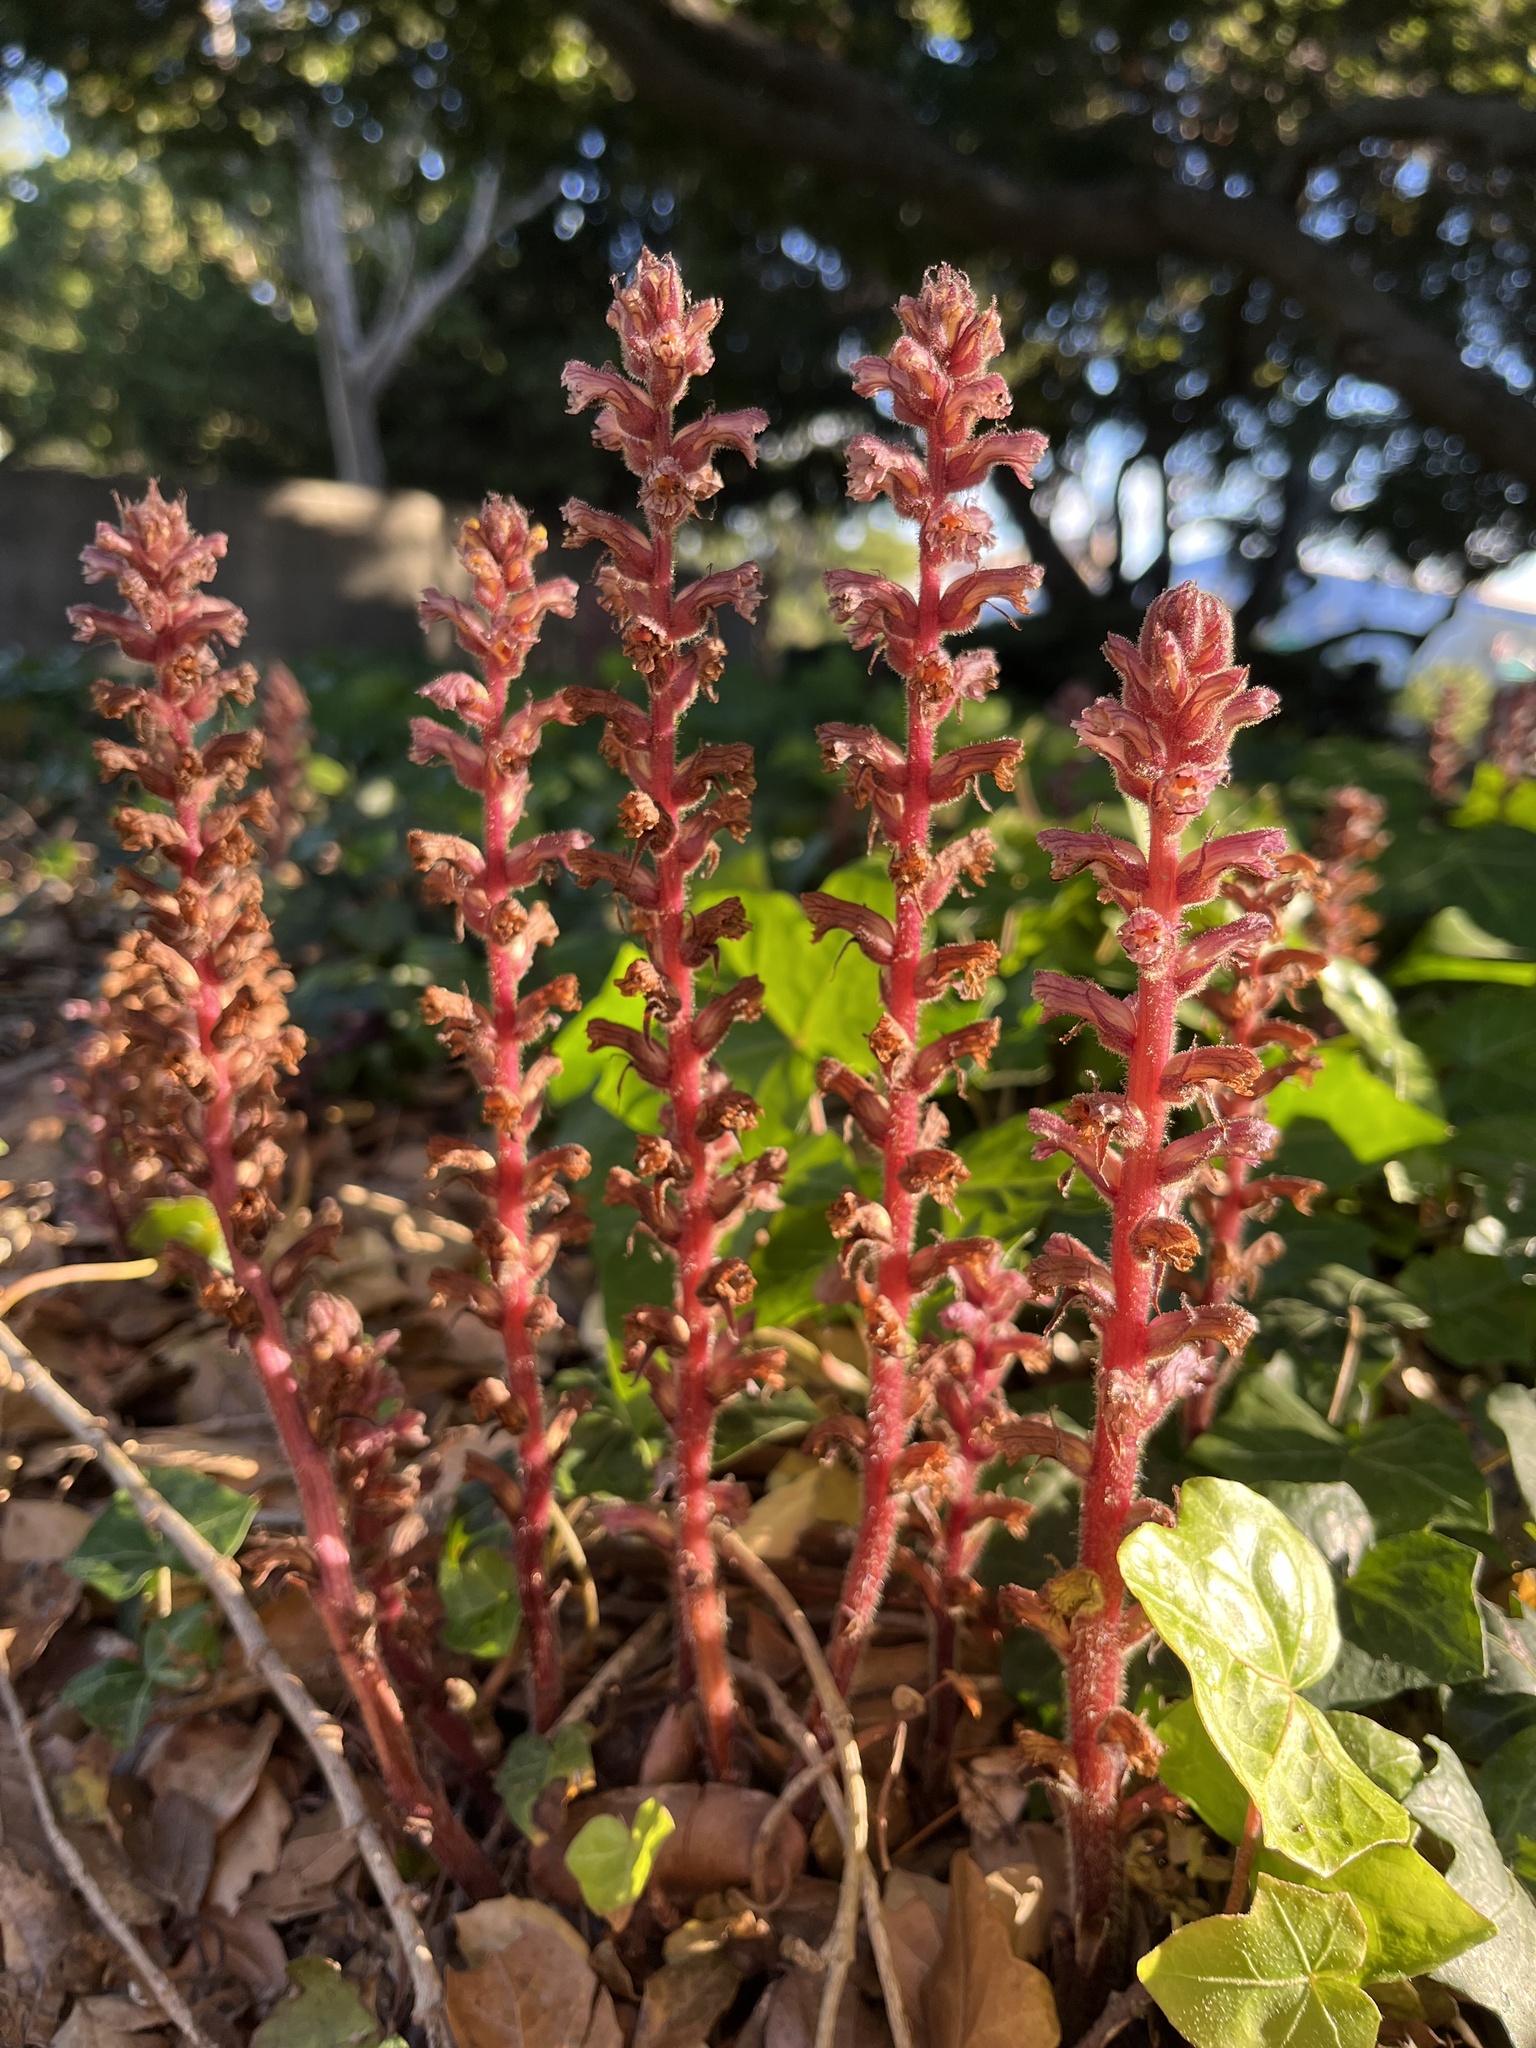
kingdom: Plantae
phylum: Tracheophyta
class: Magnoliopsida
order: Lamiales
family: Orobanchaceae
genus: Orobanche
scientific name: Orobanche hederae
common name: Ivy broomrape
